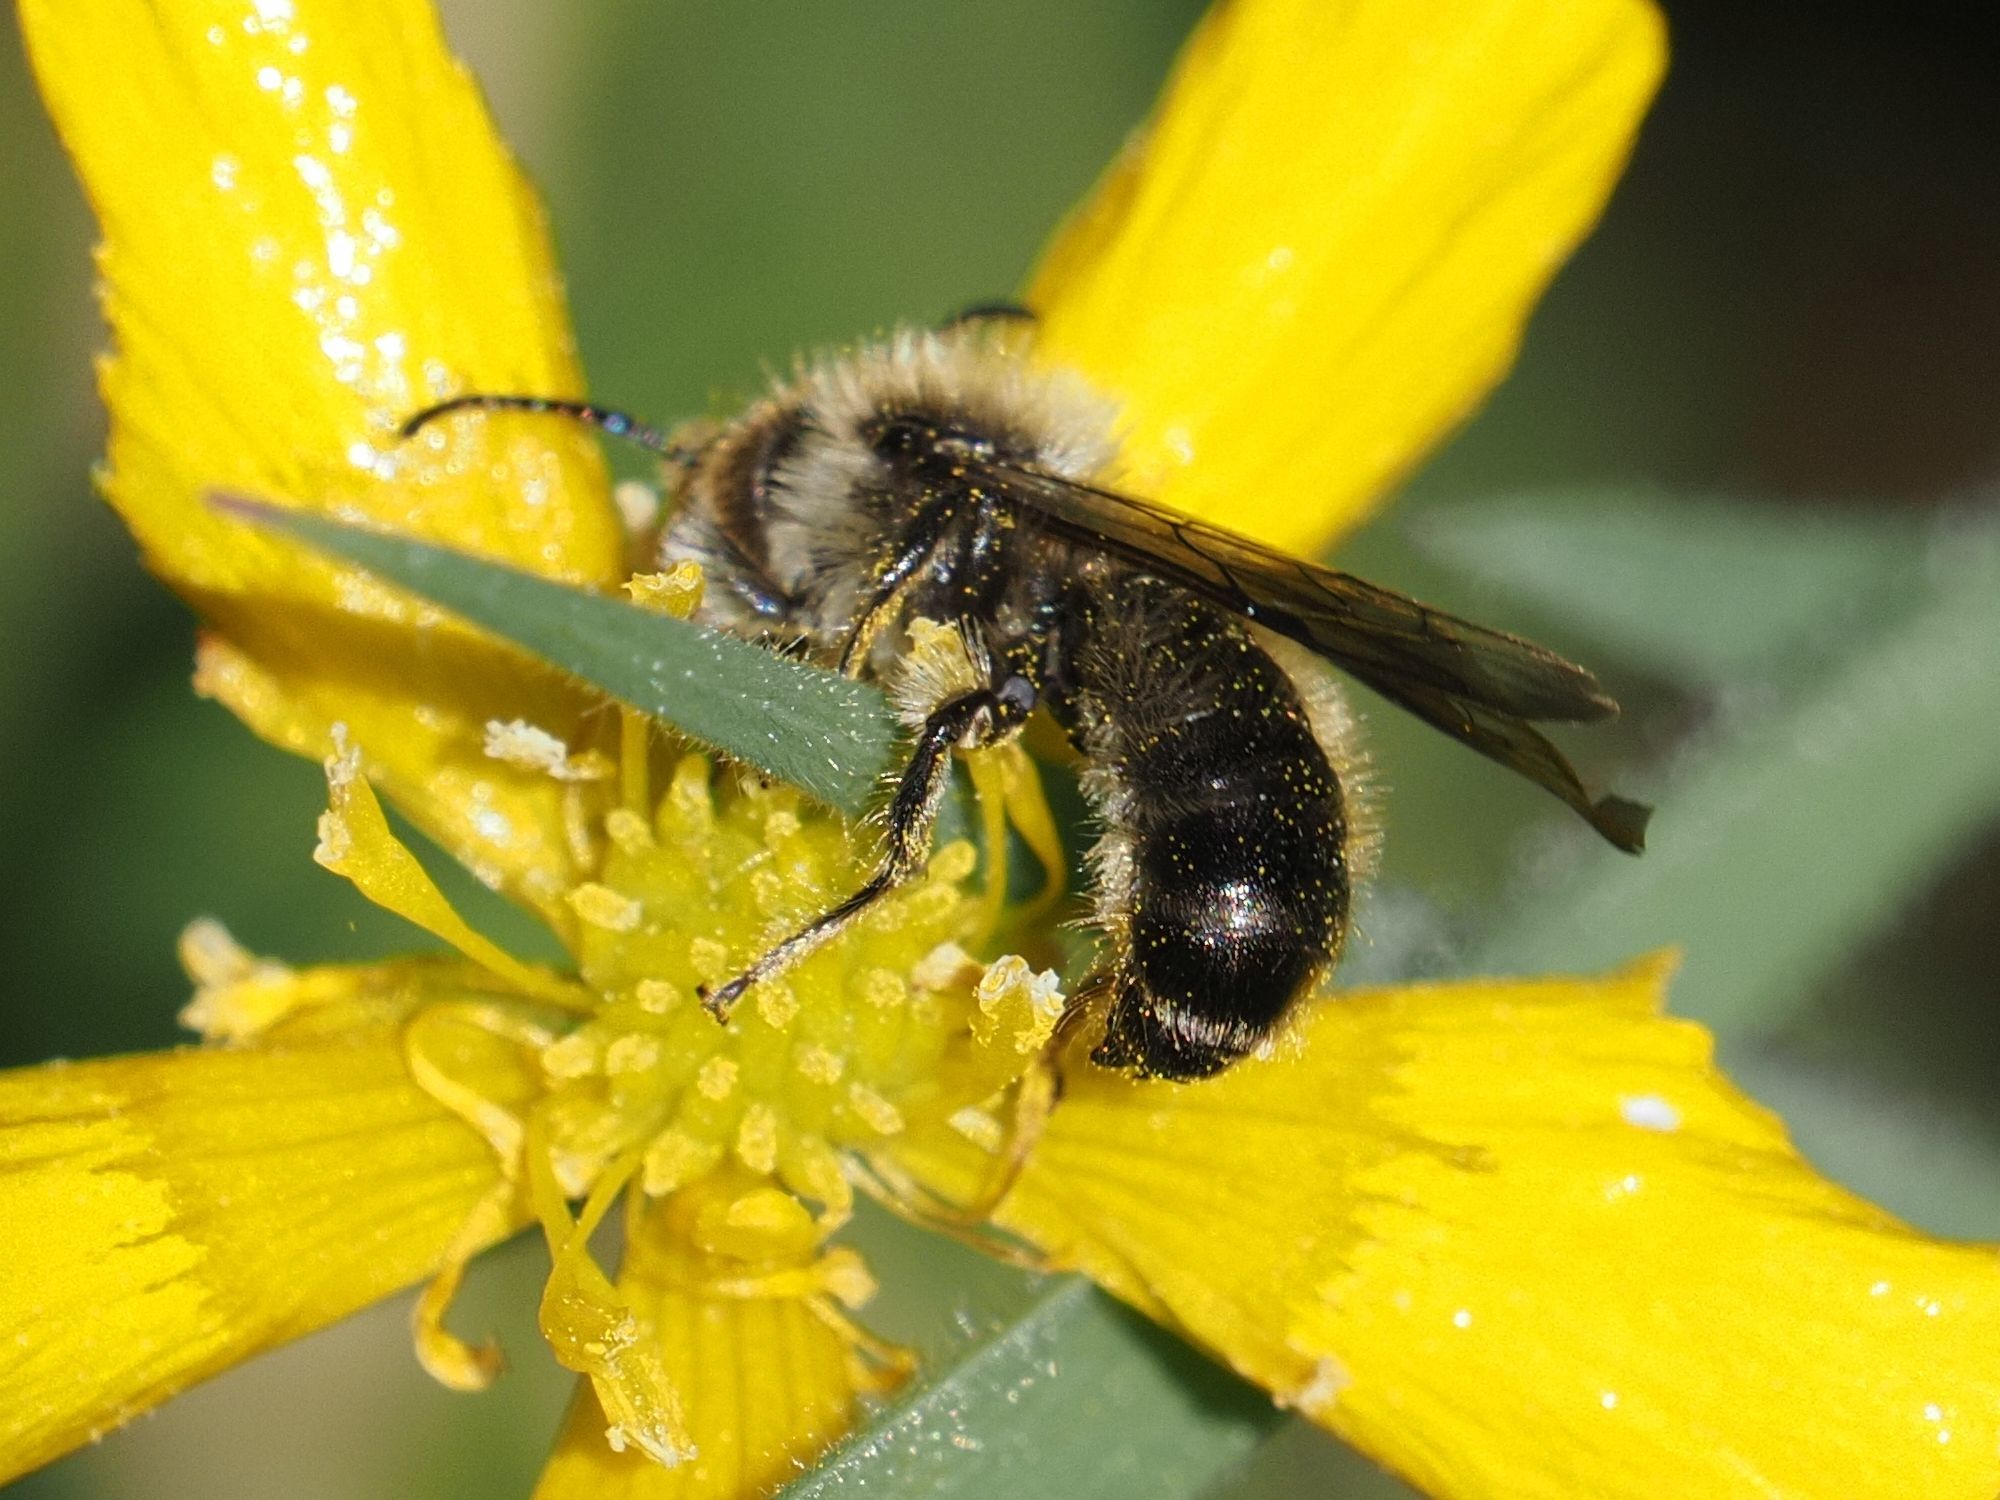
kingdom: Animalia
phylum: Arthropoda
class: Insecta
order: Hymenoptera
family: Megachilidae
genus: Chelostoma
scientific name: Chelostoma florisomne
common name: Sleepy carpenter bee
